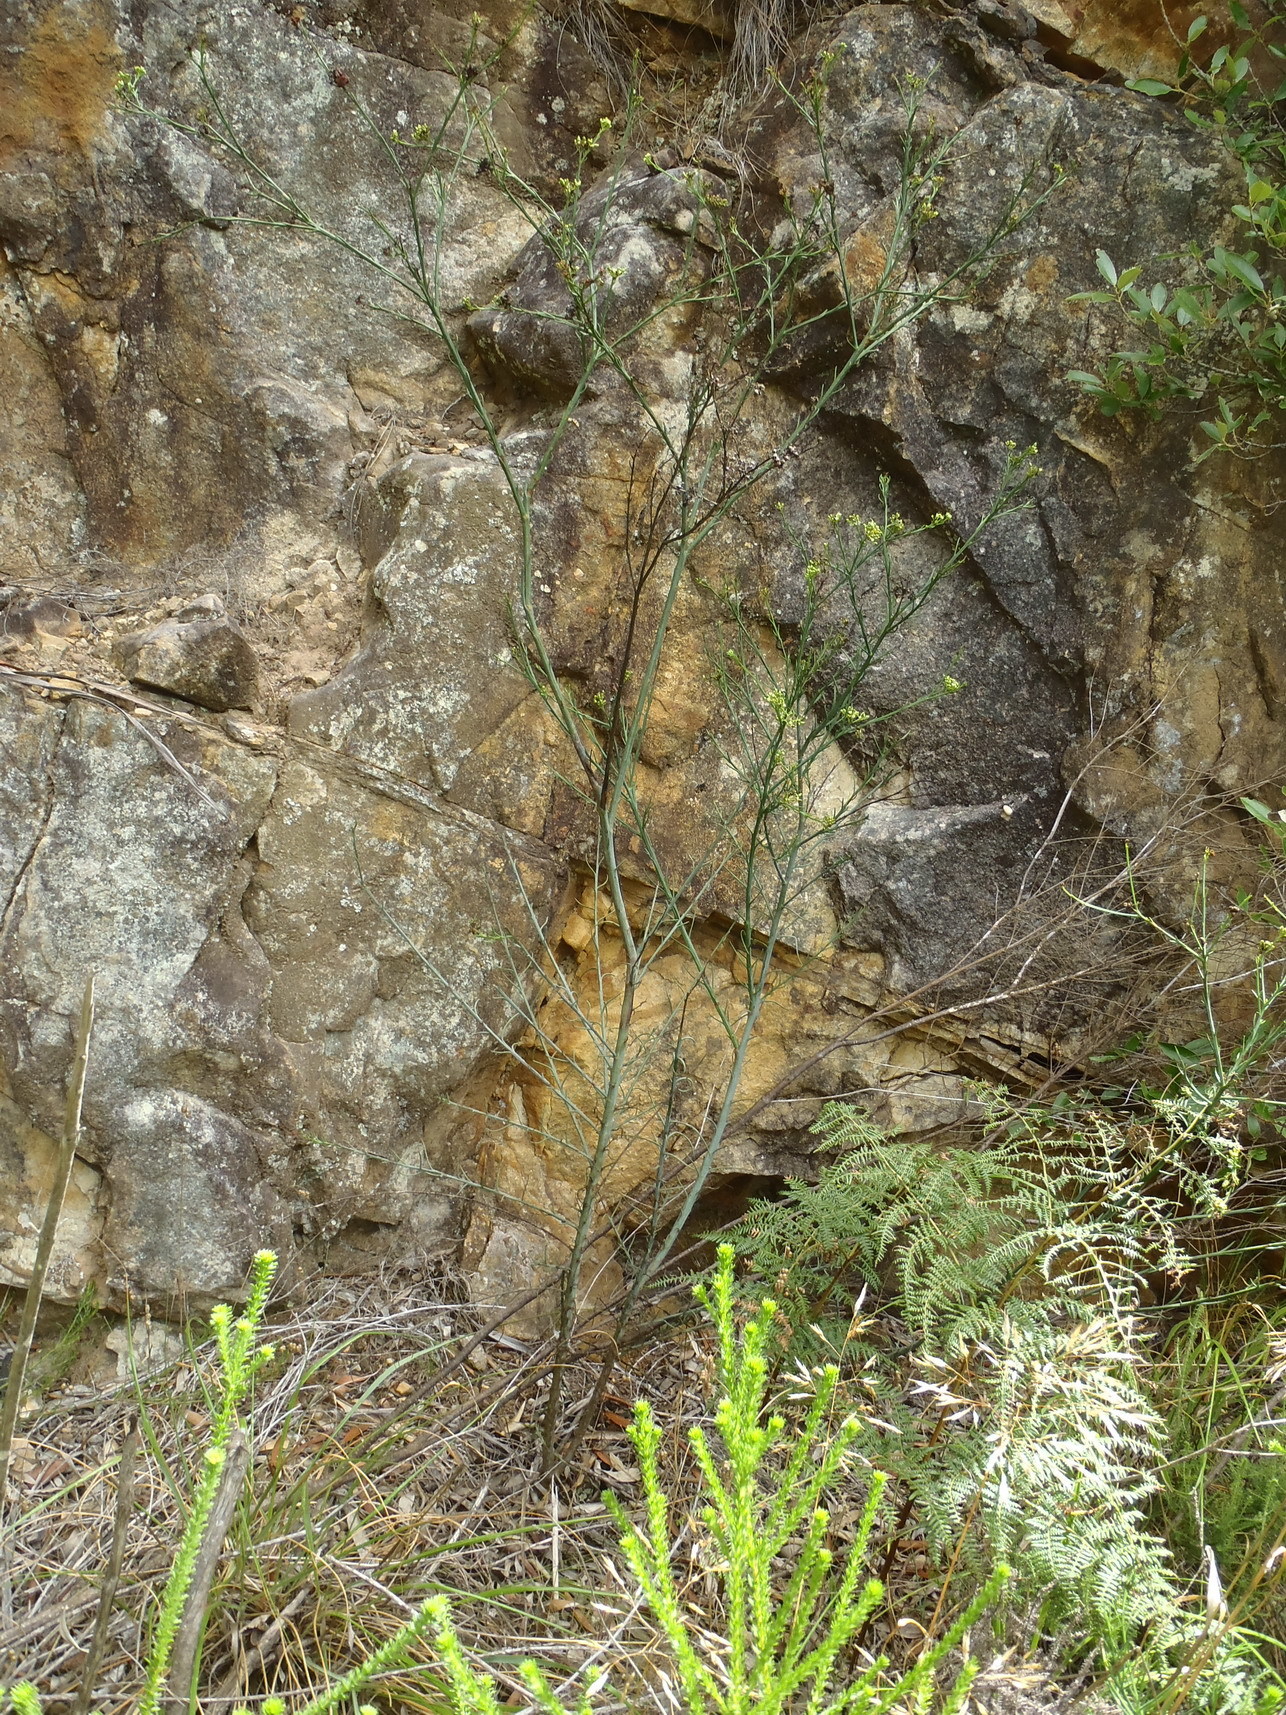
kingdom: Plantae
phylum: Tracheophyta
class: Magnoliopsida
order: Santalales
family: Thesiaceae
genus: Thesium
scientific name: Thesium strictum
